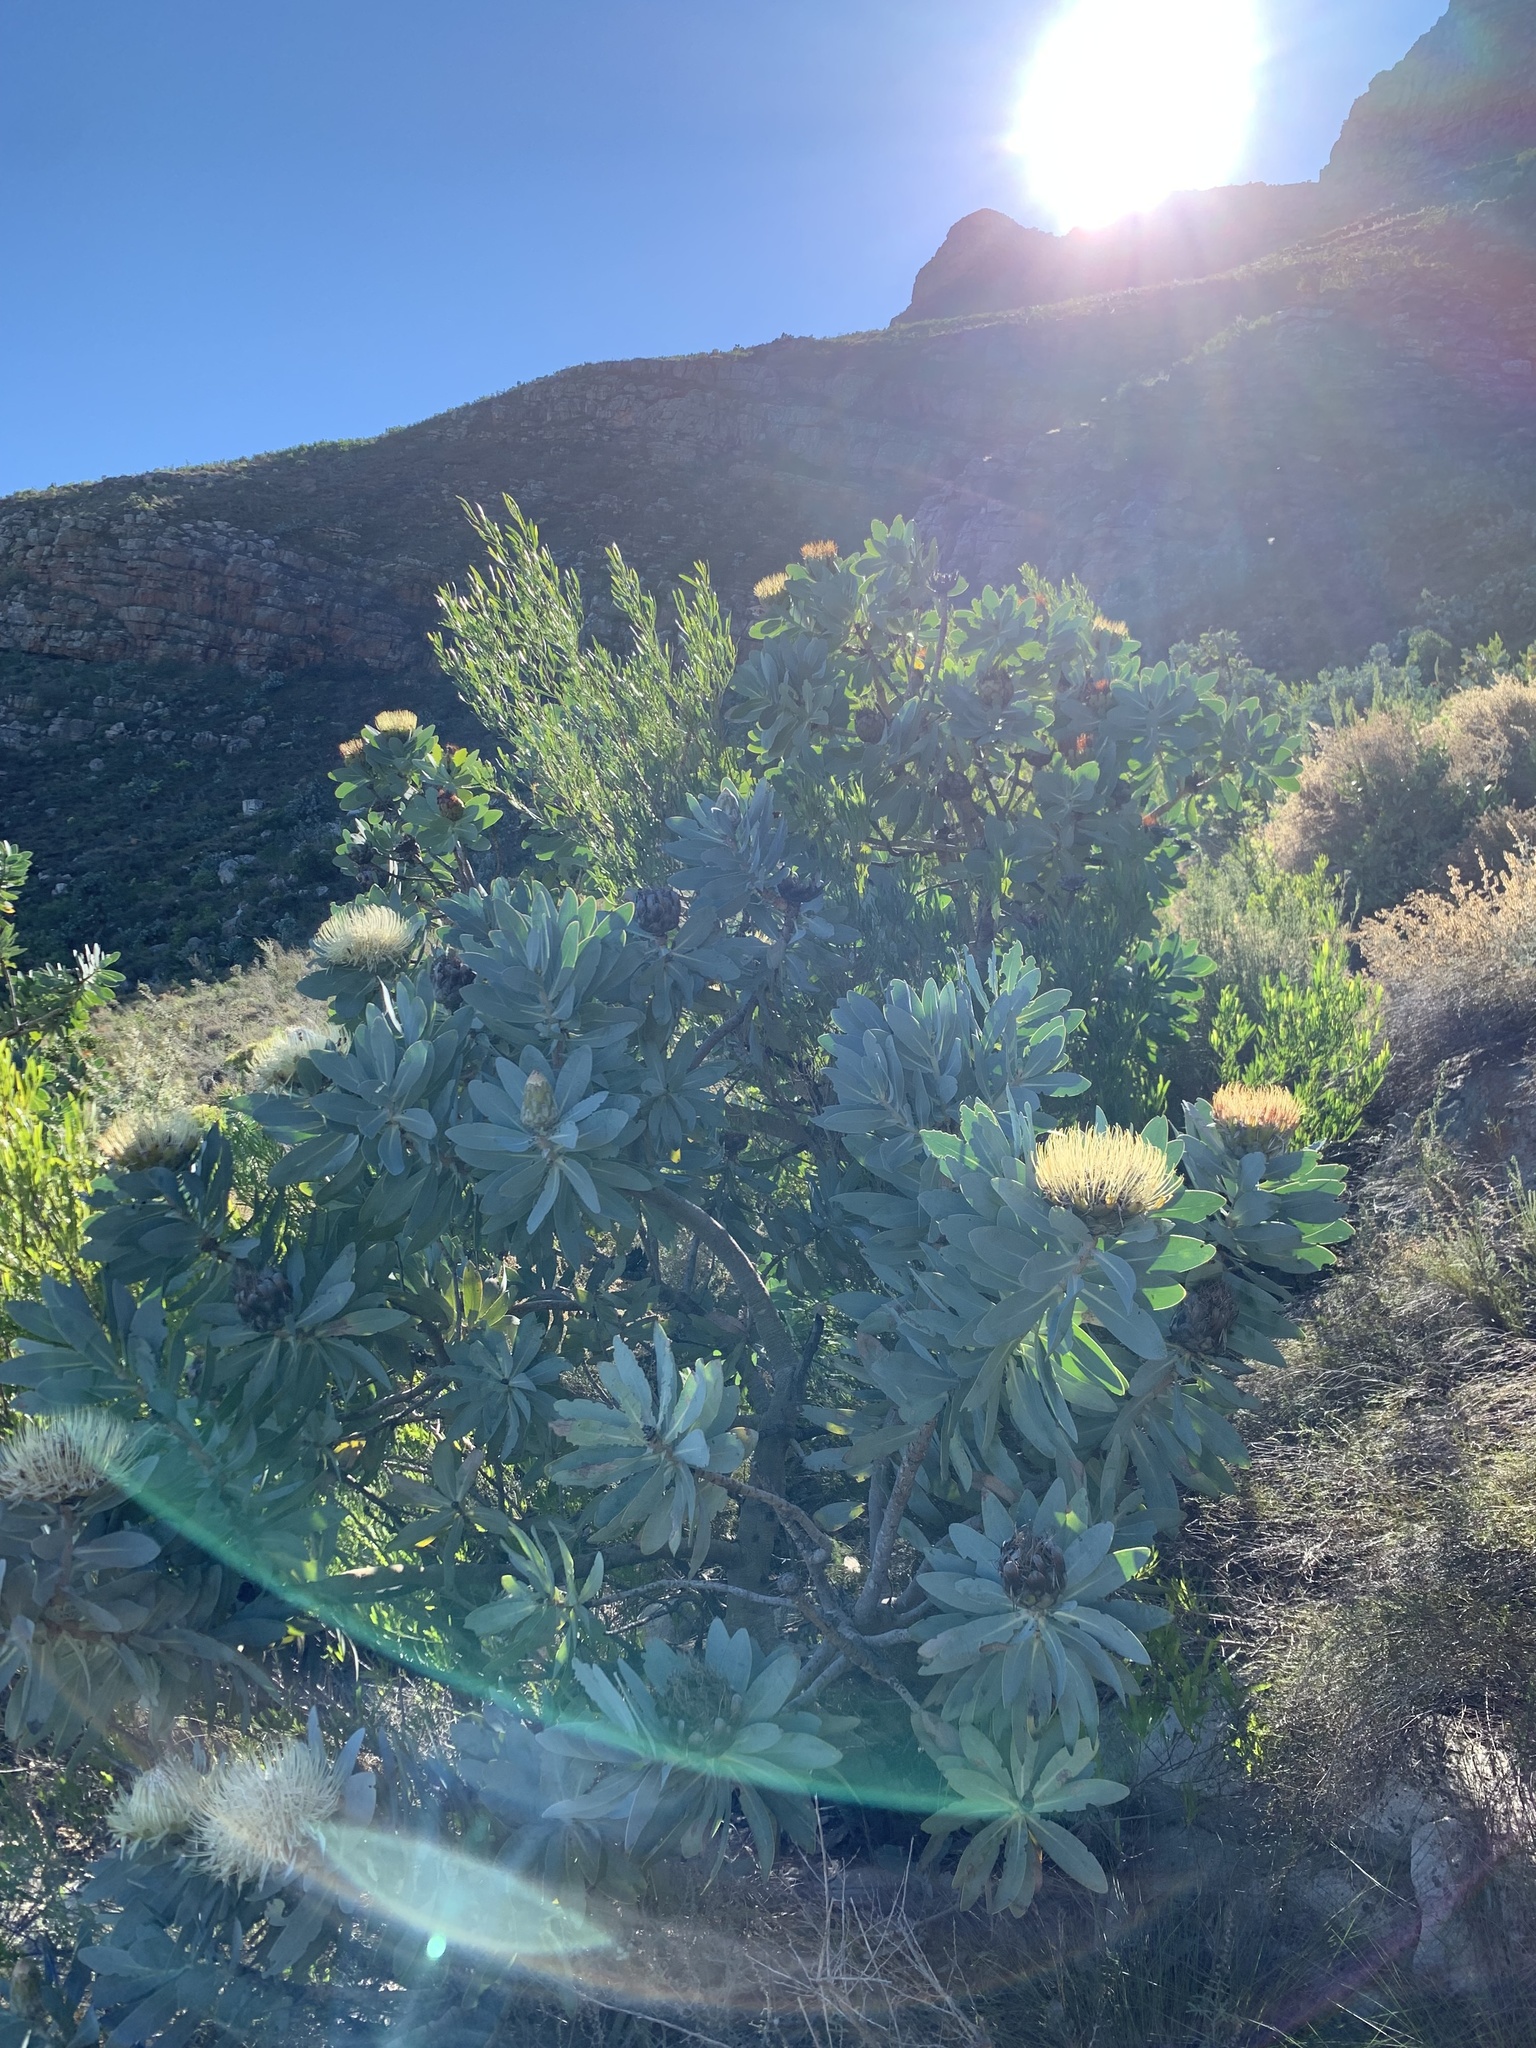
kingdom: Plantae
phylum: Tracheophyta
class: Magnoliopsida
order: Proteales
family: Proteaceae
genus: Protea
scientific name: Protea nitida
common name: Tree protea
